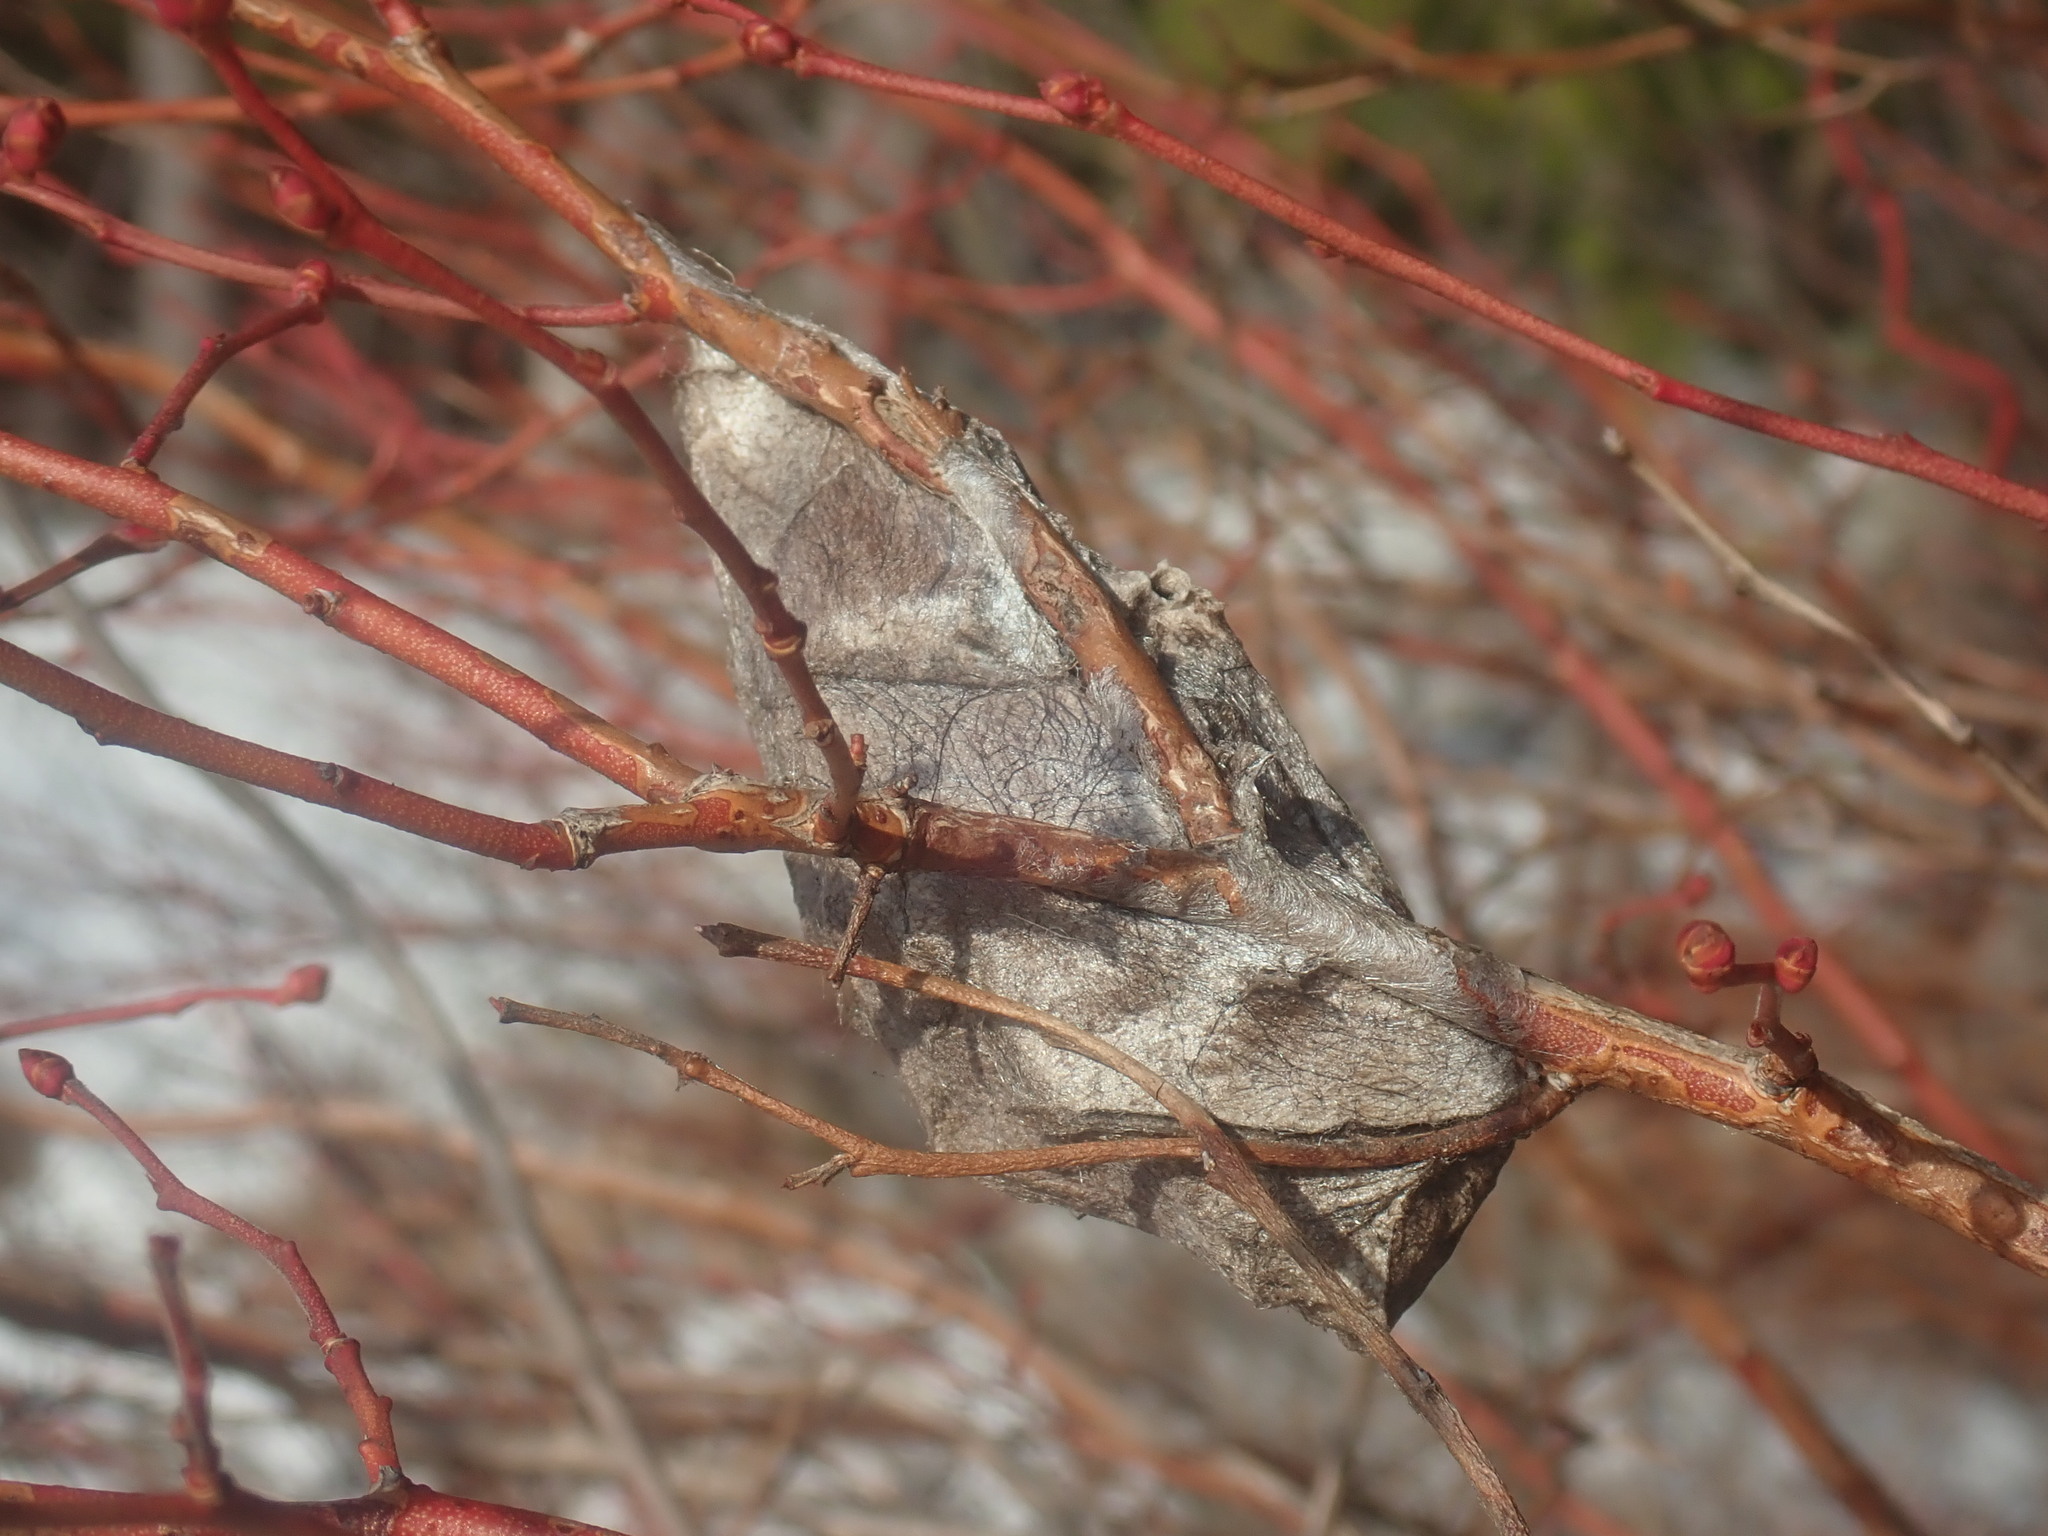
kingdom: Animalia
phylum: Arthropoda
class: Insecta
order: Lepidoptera
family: Saturniidae
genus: Hyalophora
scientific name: Hyalophora cecropia
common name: Cecropia silkmoth
